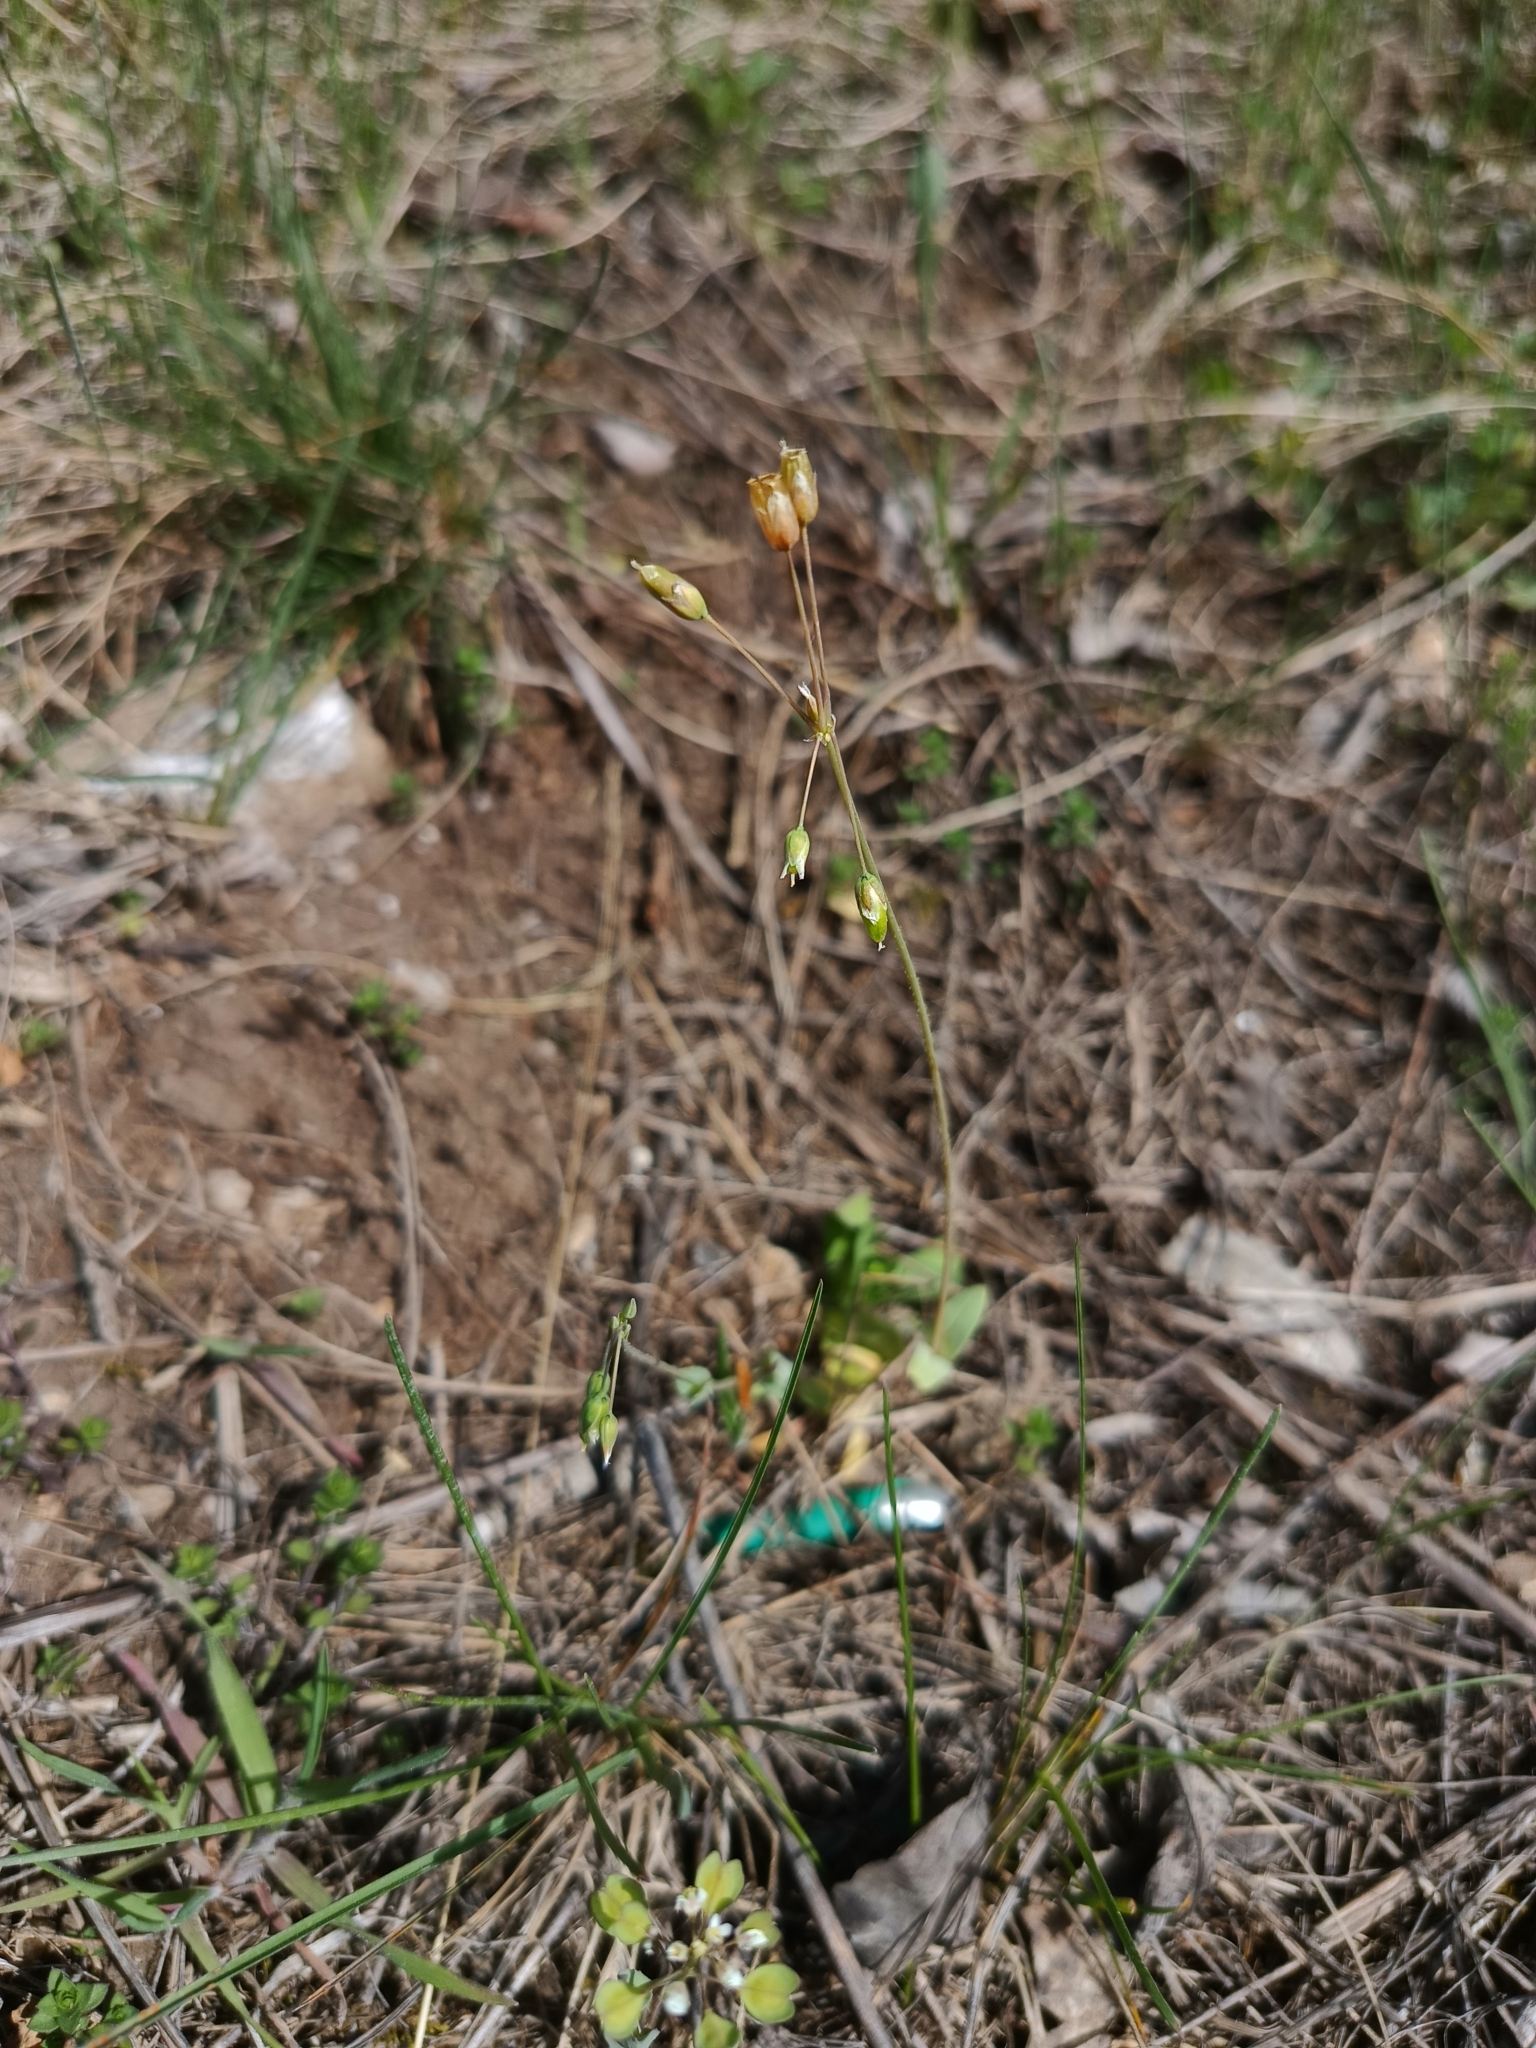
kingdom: Plantae
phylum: Tracheophyta
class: Magnoliopsida
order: Caryophyllales
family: Caryophyllaceae
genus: Holosteum
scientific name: Holosteum umbellatum
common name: Jagged chickweed
